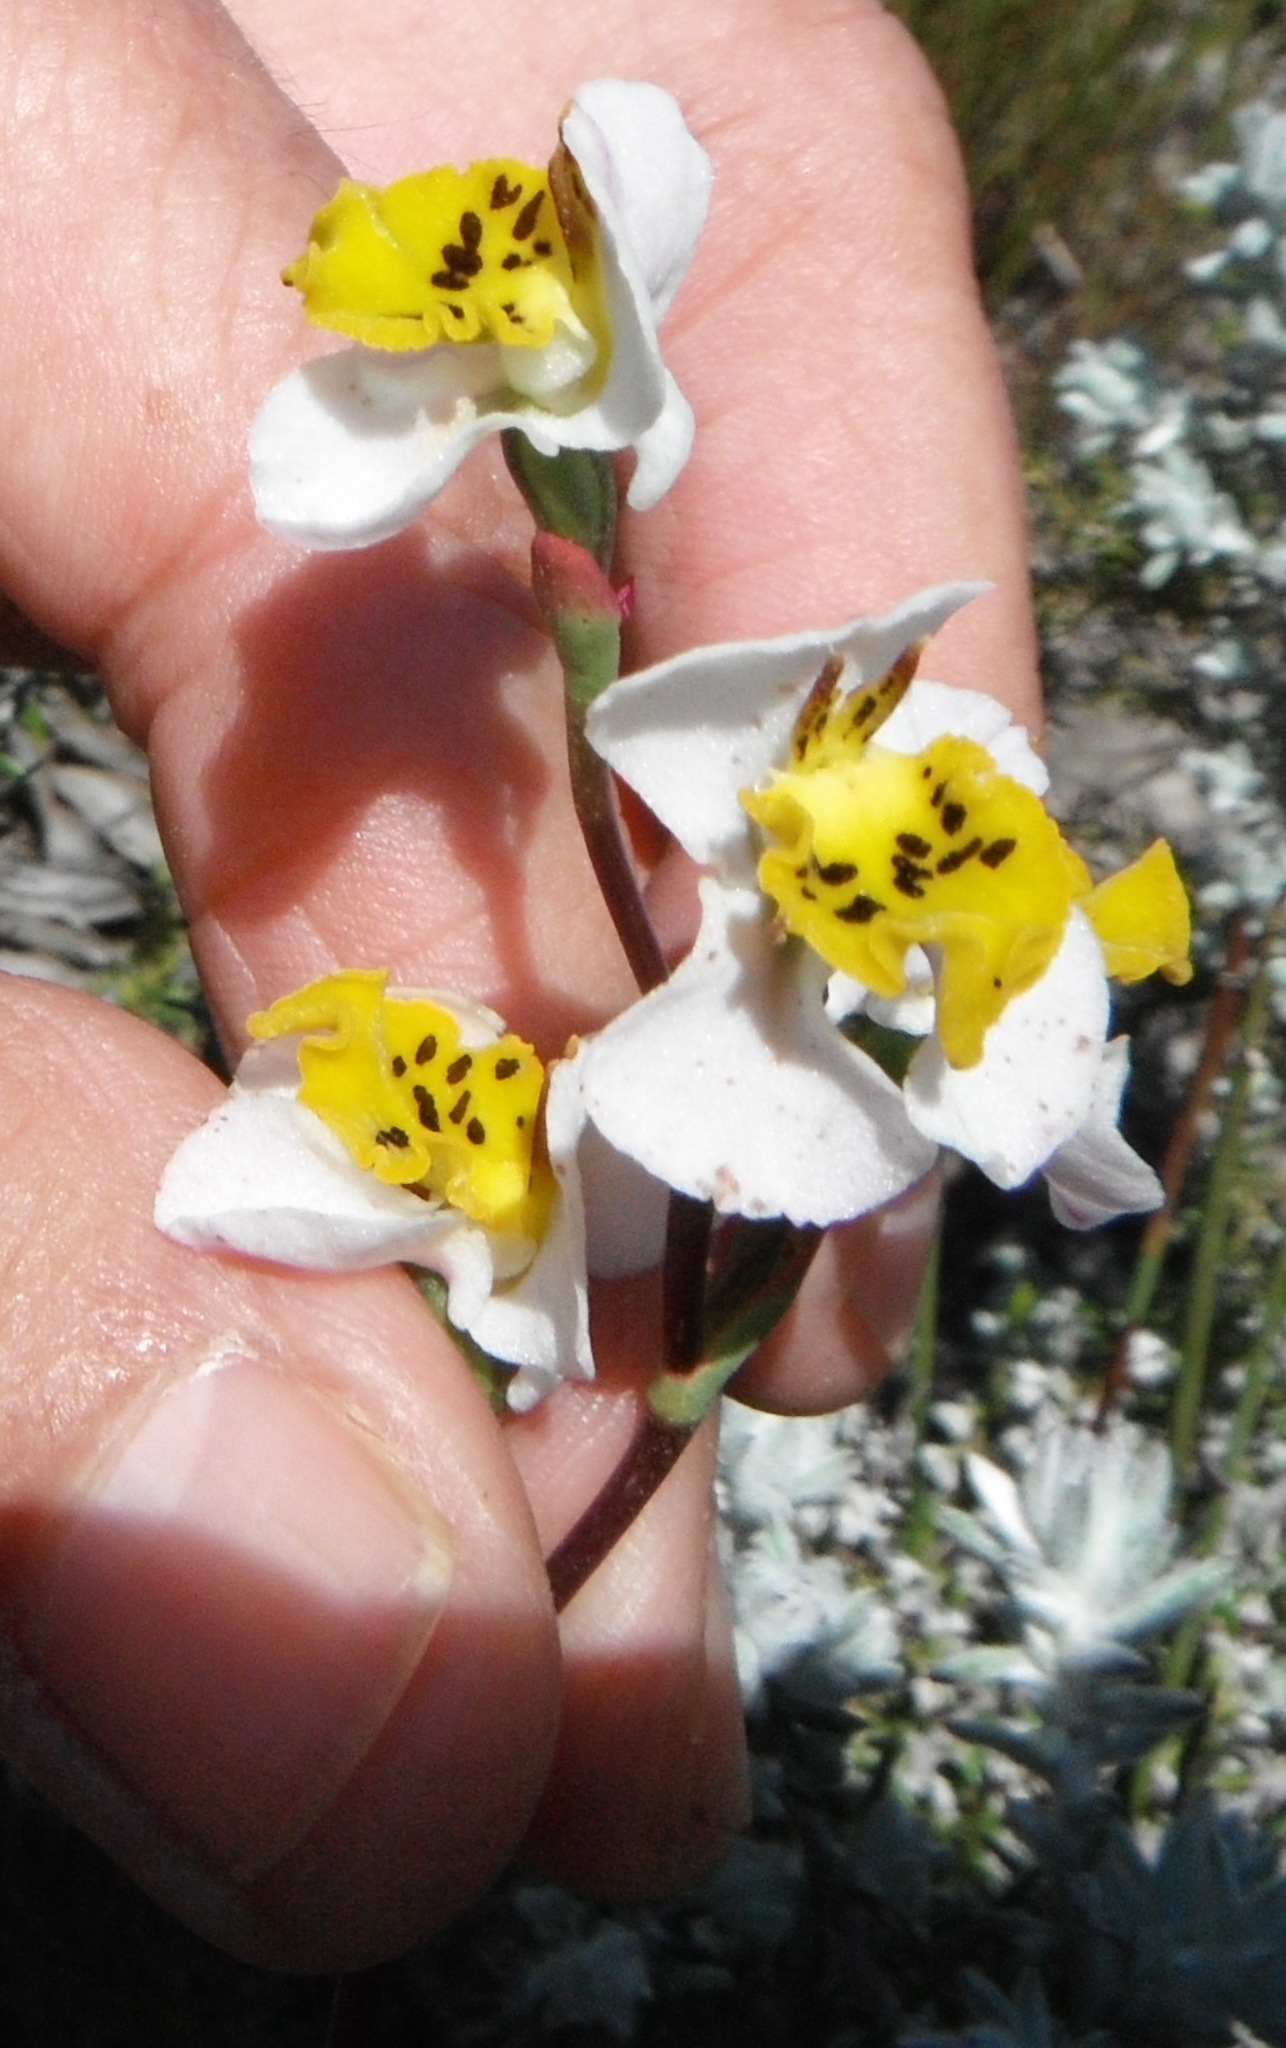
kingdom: Plantae
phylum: Tracheophyta
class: Liliopsida
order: Asparagales
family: Orchidaceae
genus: Disa
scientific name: Disa flexuosa
